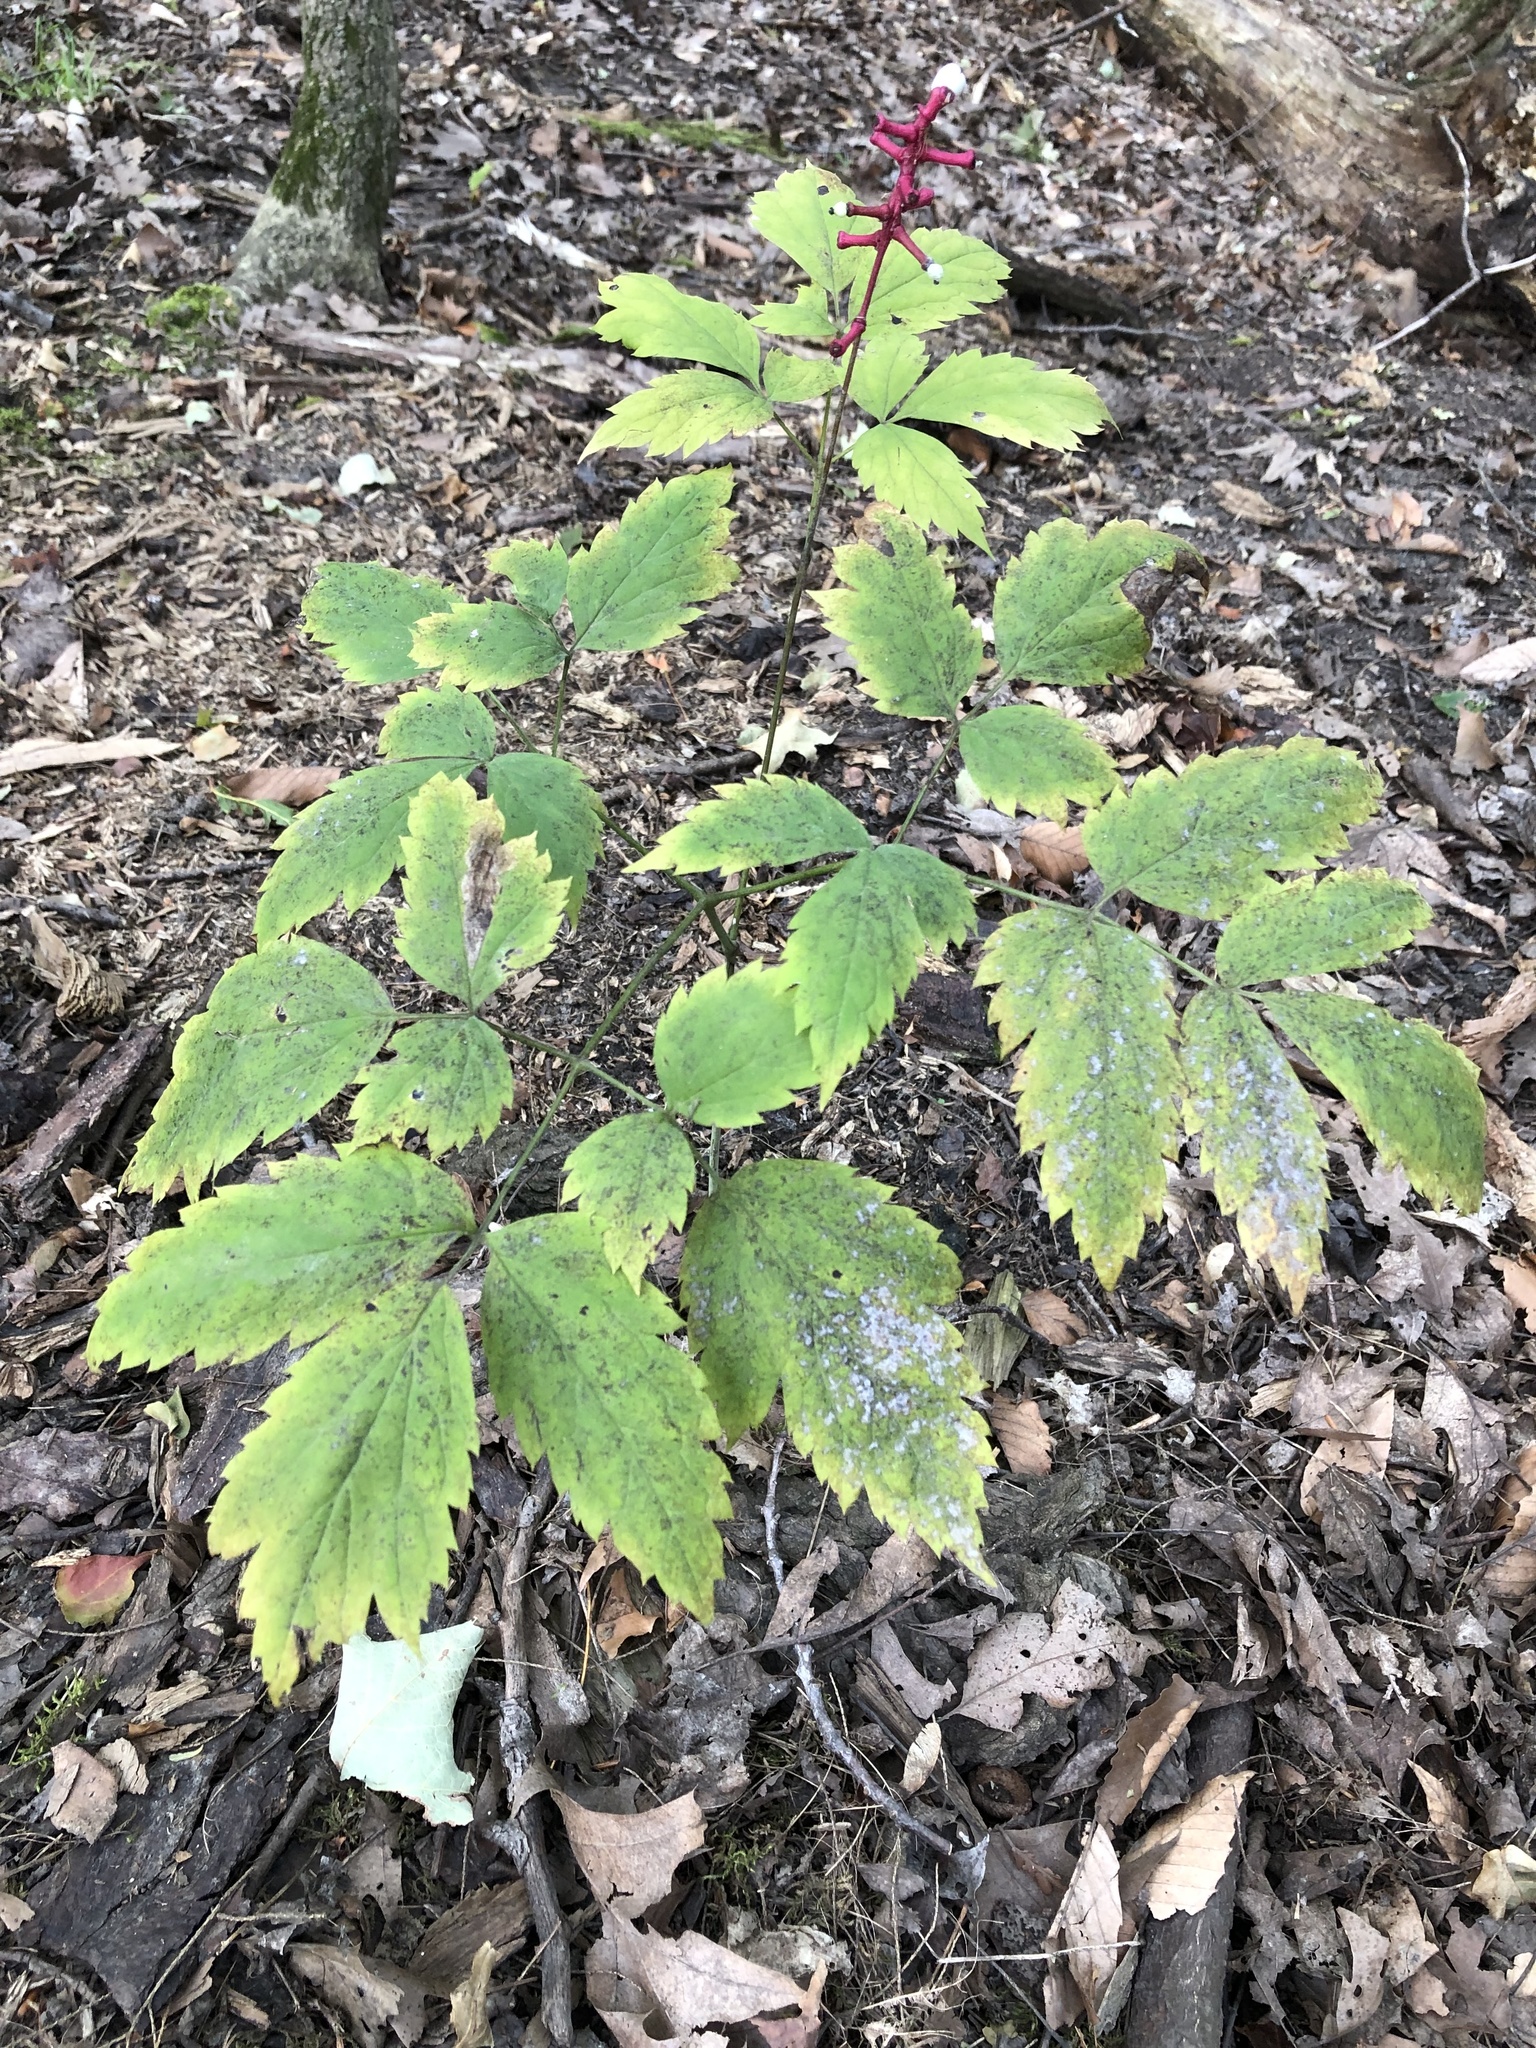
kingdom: Plantae
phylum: Tracheophyta
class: Magnoliopsida
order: Ranunculales
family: Ranunculaceae
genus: Actaea
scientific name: Actaea pachypoda
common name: Doll's-eyes
